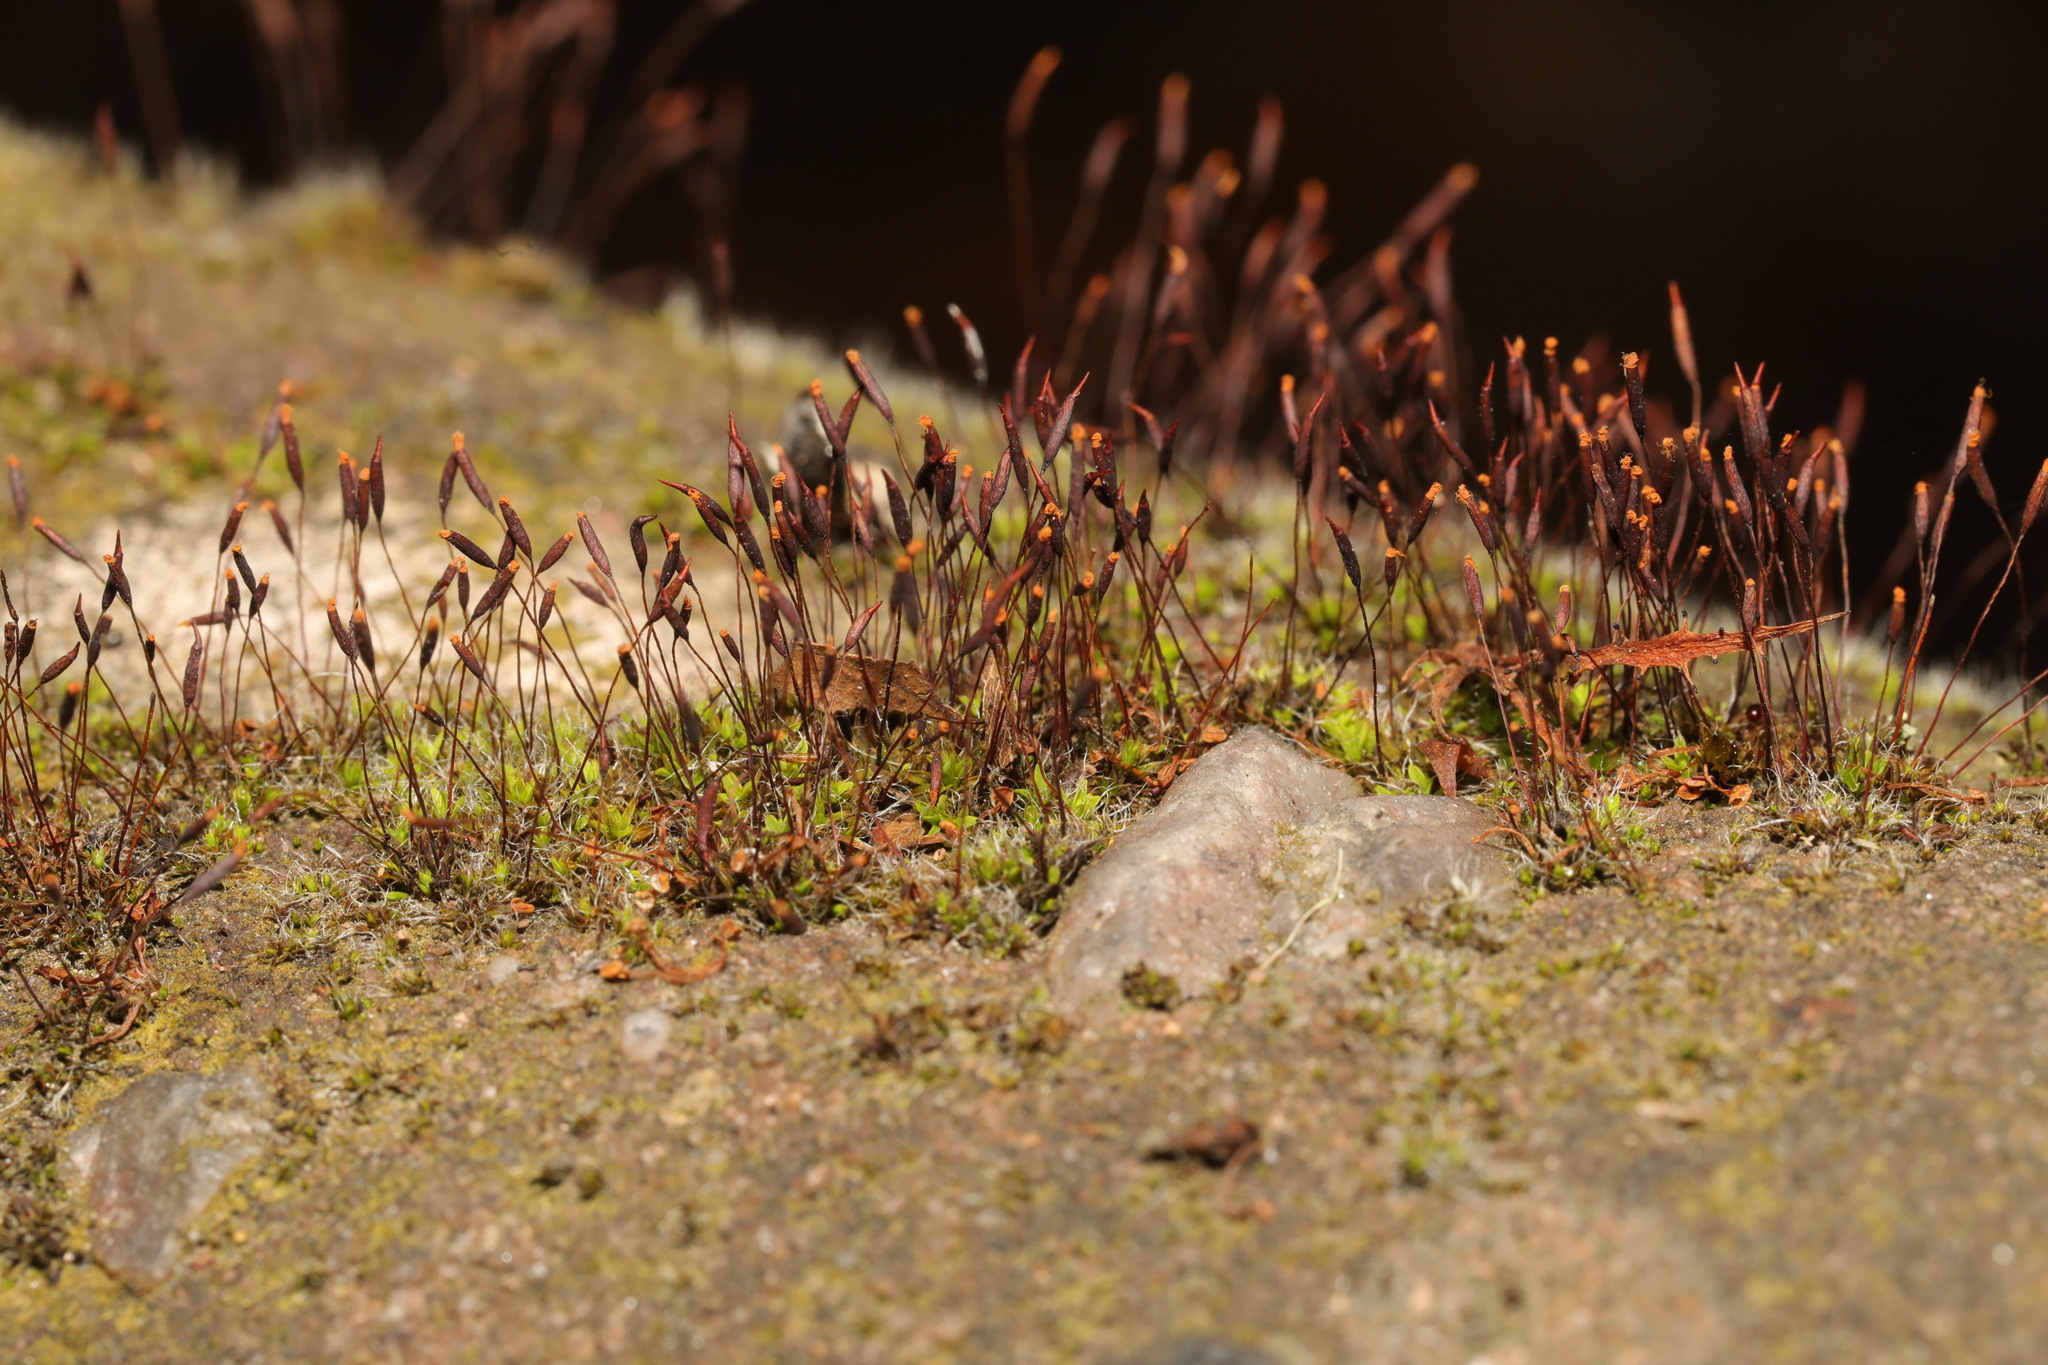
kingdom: Plantae
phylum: Bryophyta
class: Bryopsida
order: Pottiales
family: Pottiaceae
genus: Tortula
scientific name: Tortula muralis
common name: Wall screw-moss
